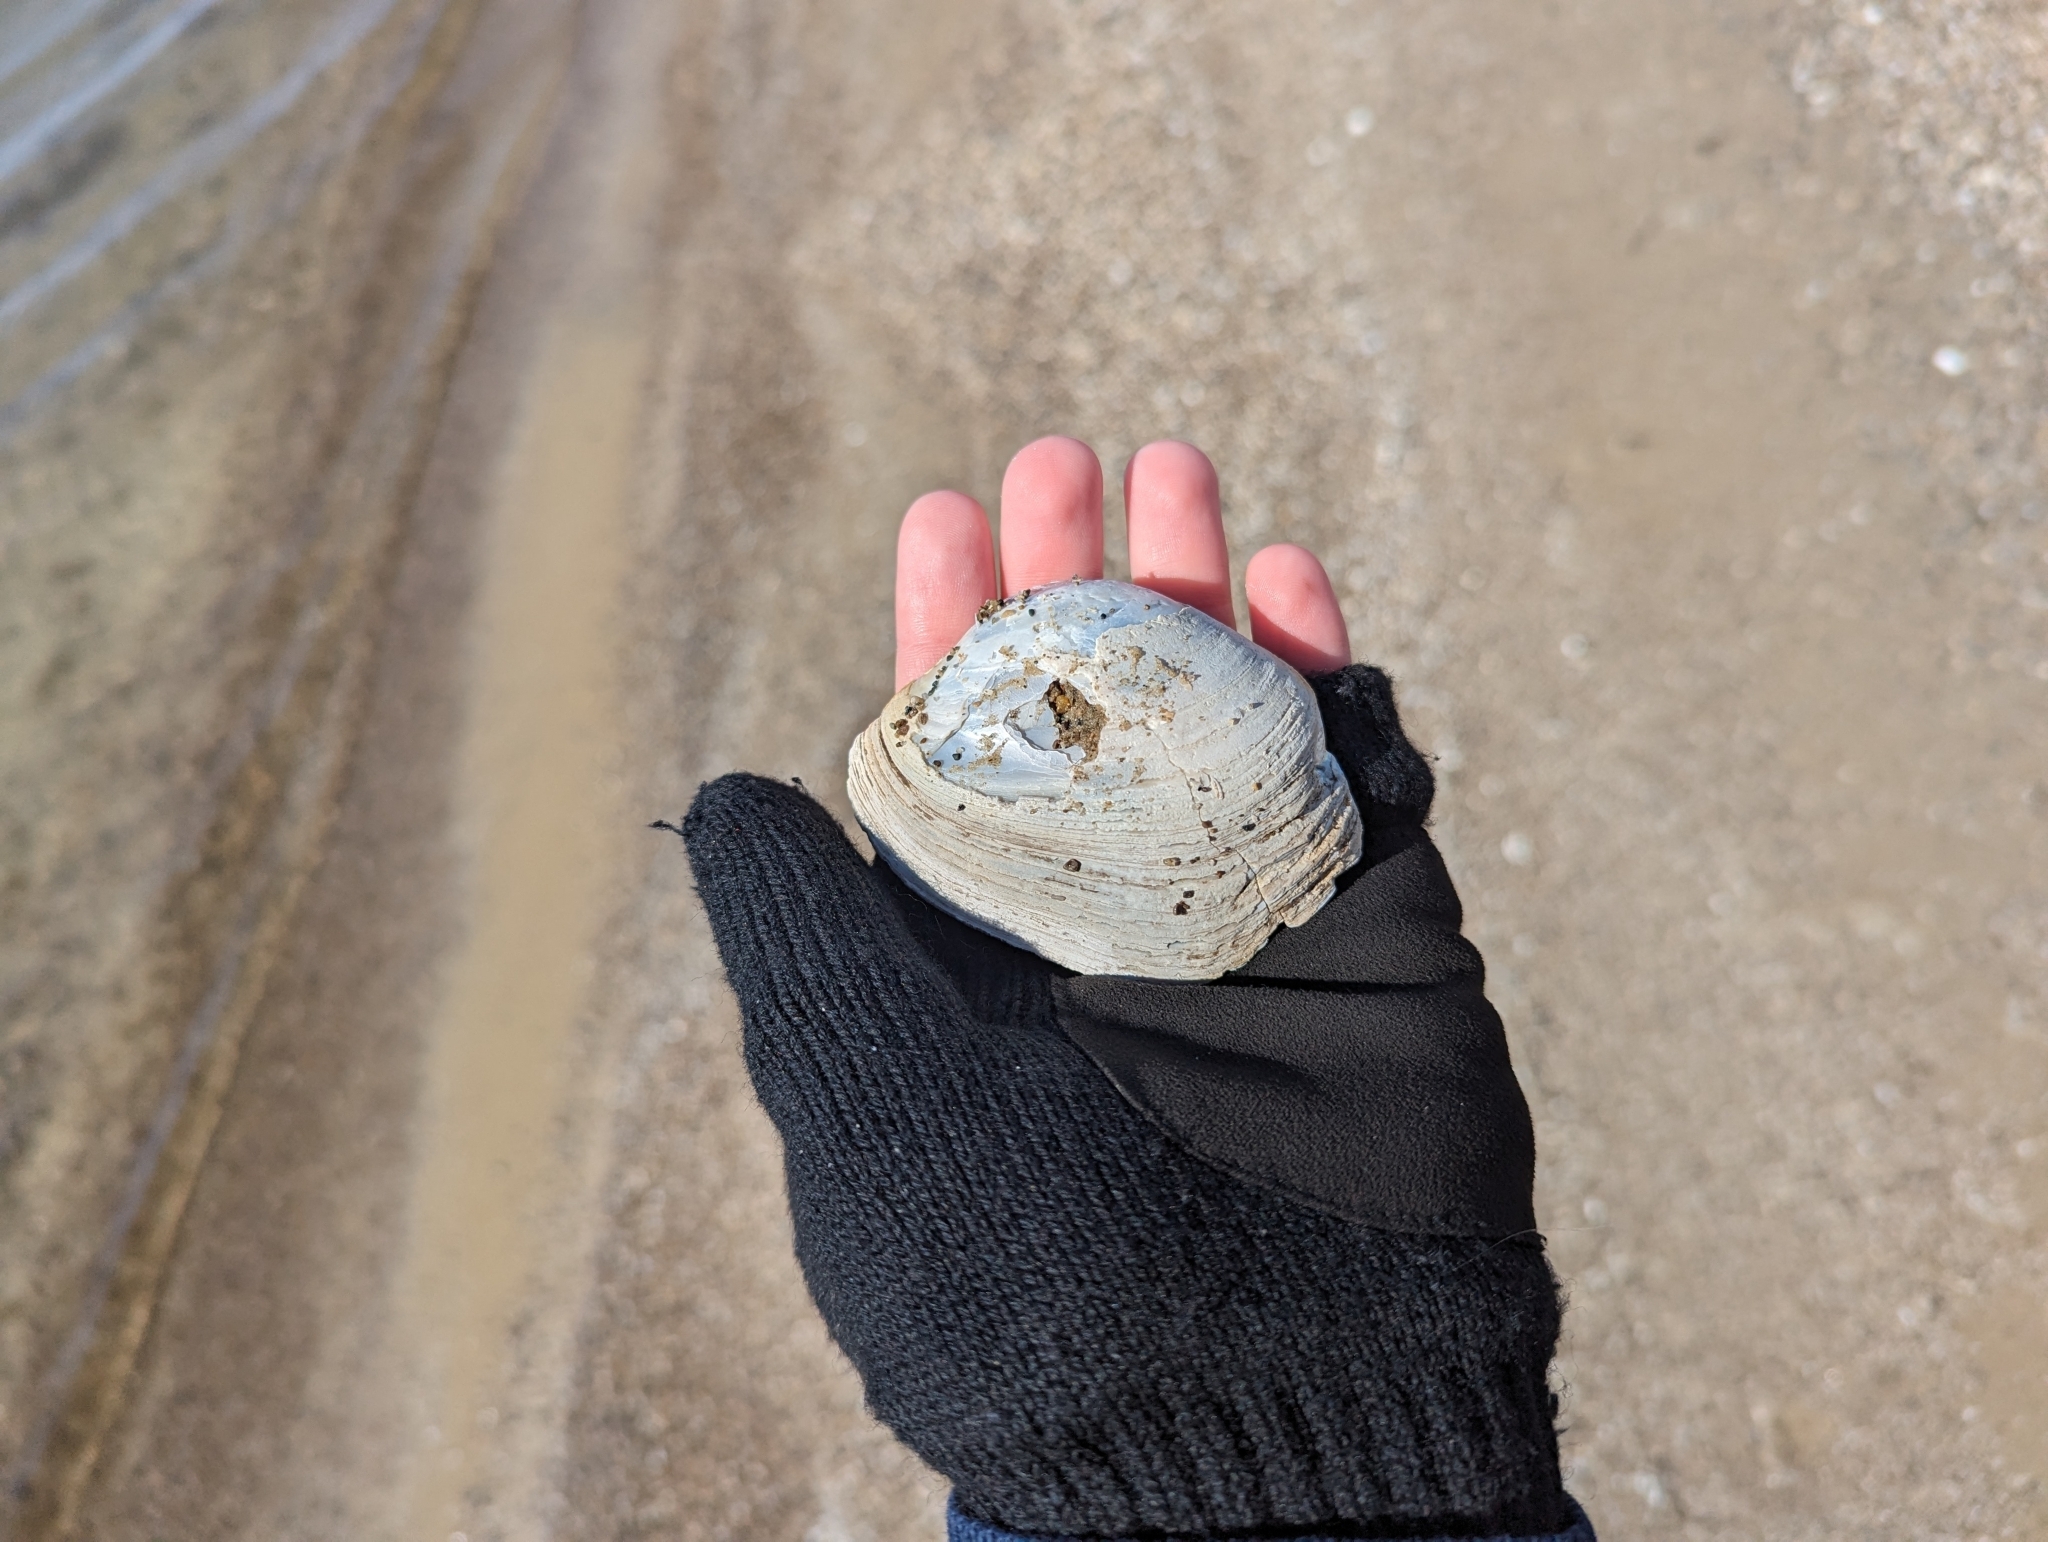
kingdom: Animalia
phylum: Mollusca
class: Bivalvia
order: Unionida
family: Unionidae
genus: Lampsilis
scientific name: Lampsilis cardium
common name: Plain pocketbook
